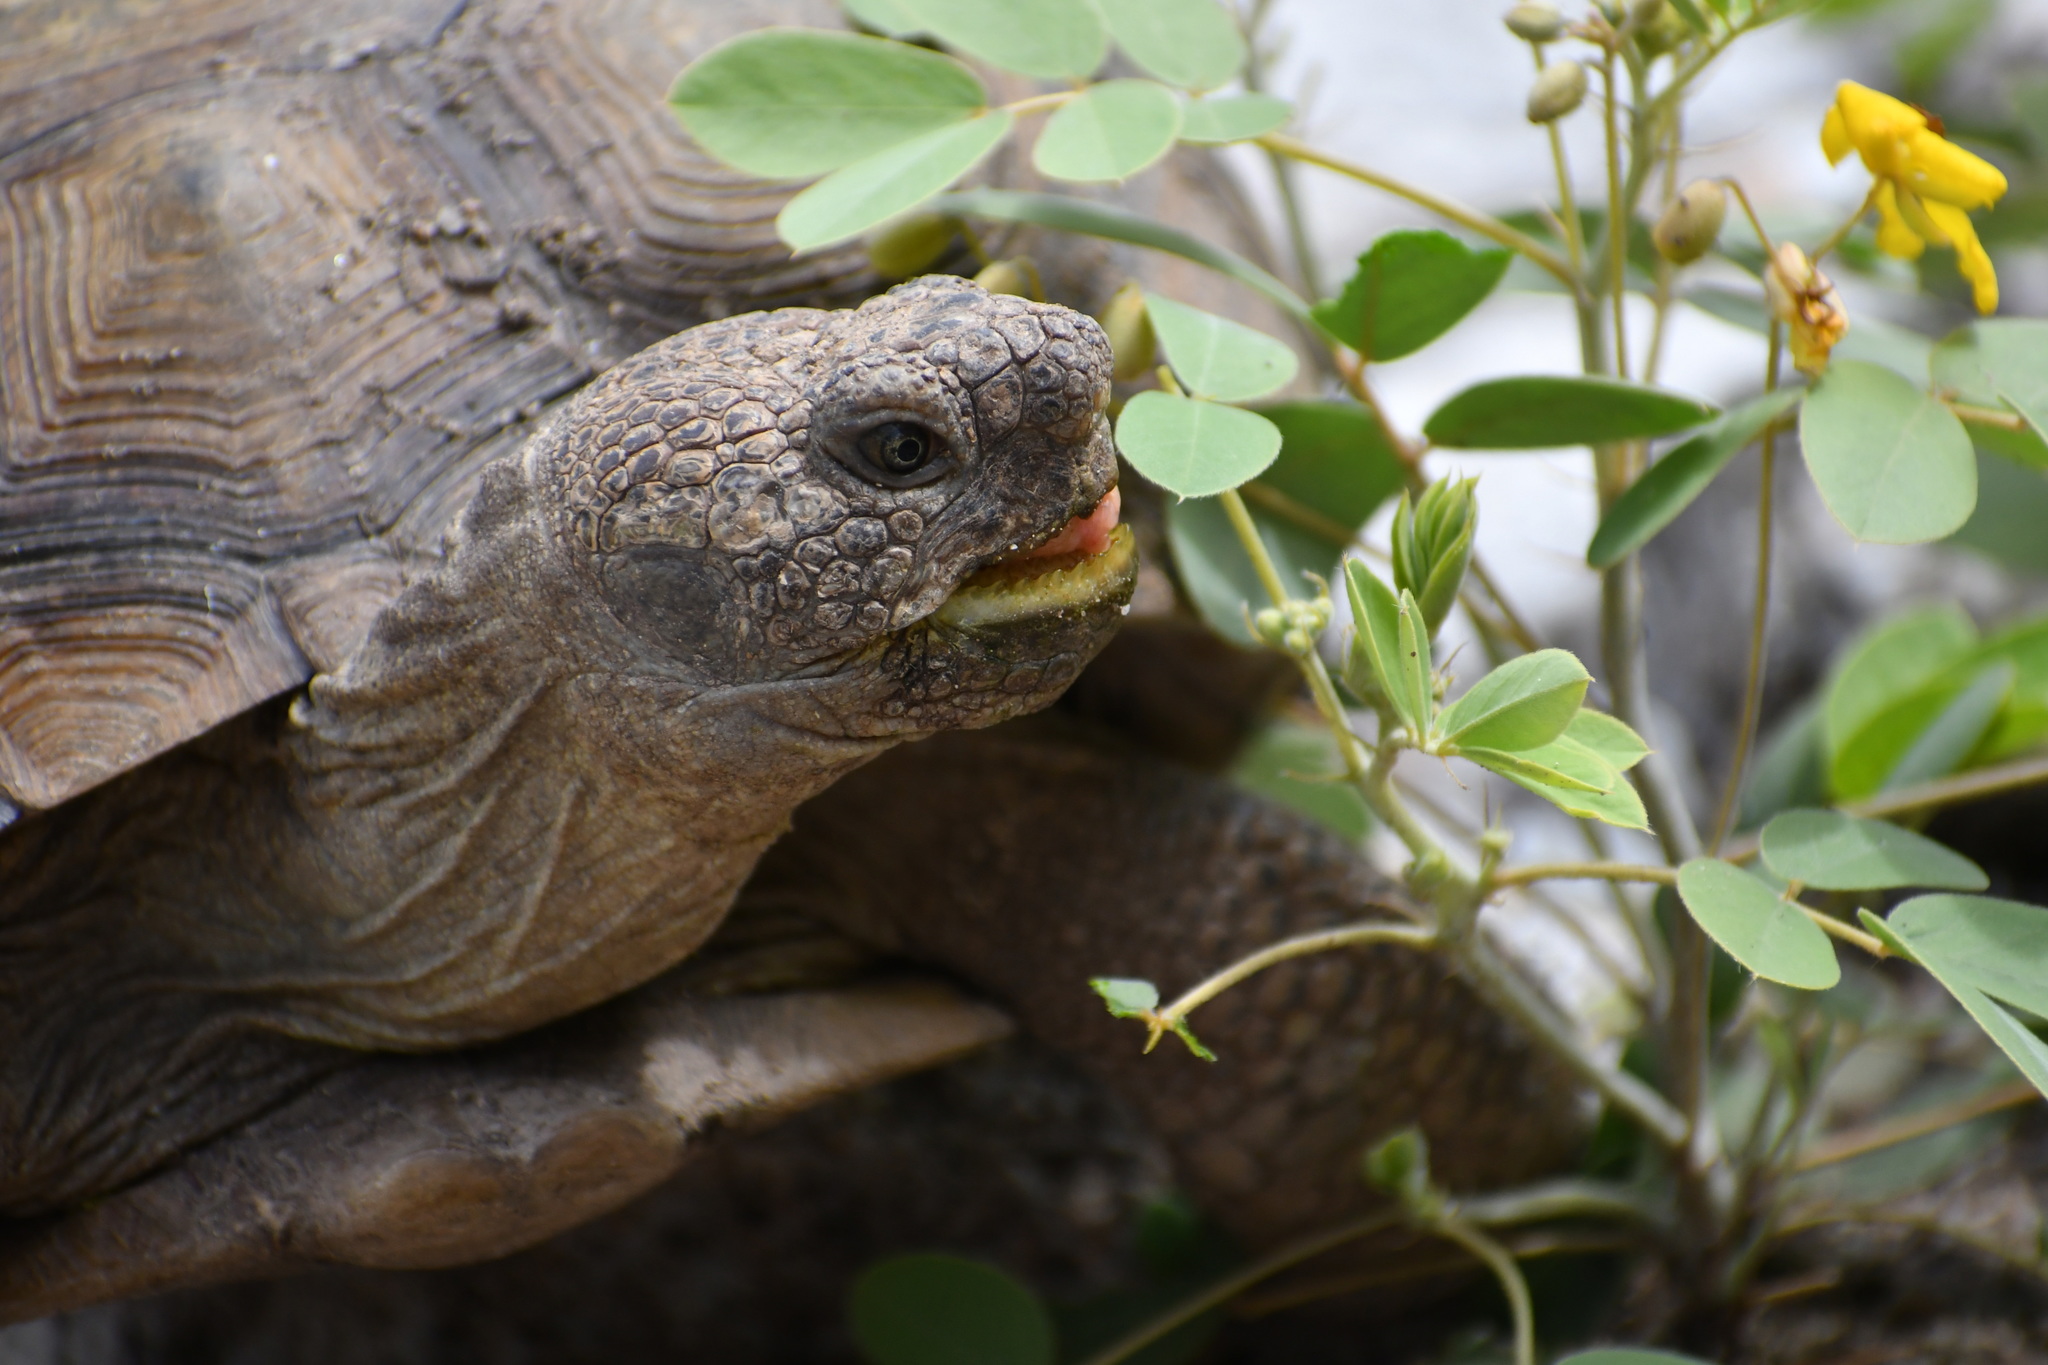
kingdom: Animalia
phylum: Chordata
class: Testudines
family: Testudinidae
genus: Gopherus
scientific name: Gopherus morafkai
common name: Sonoran desert tortoise
